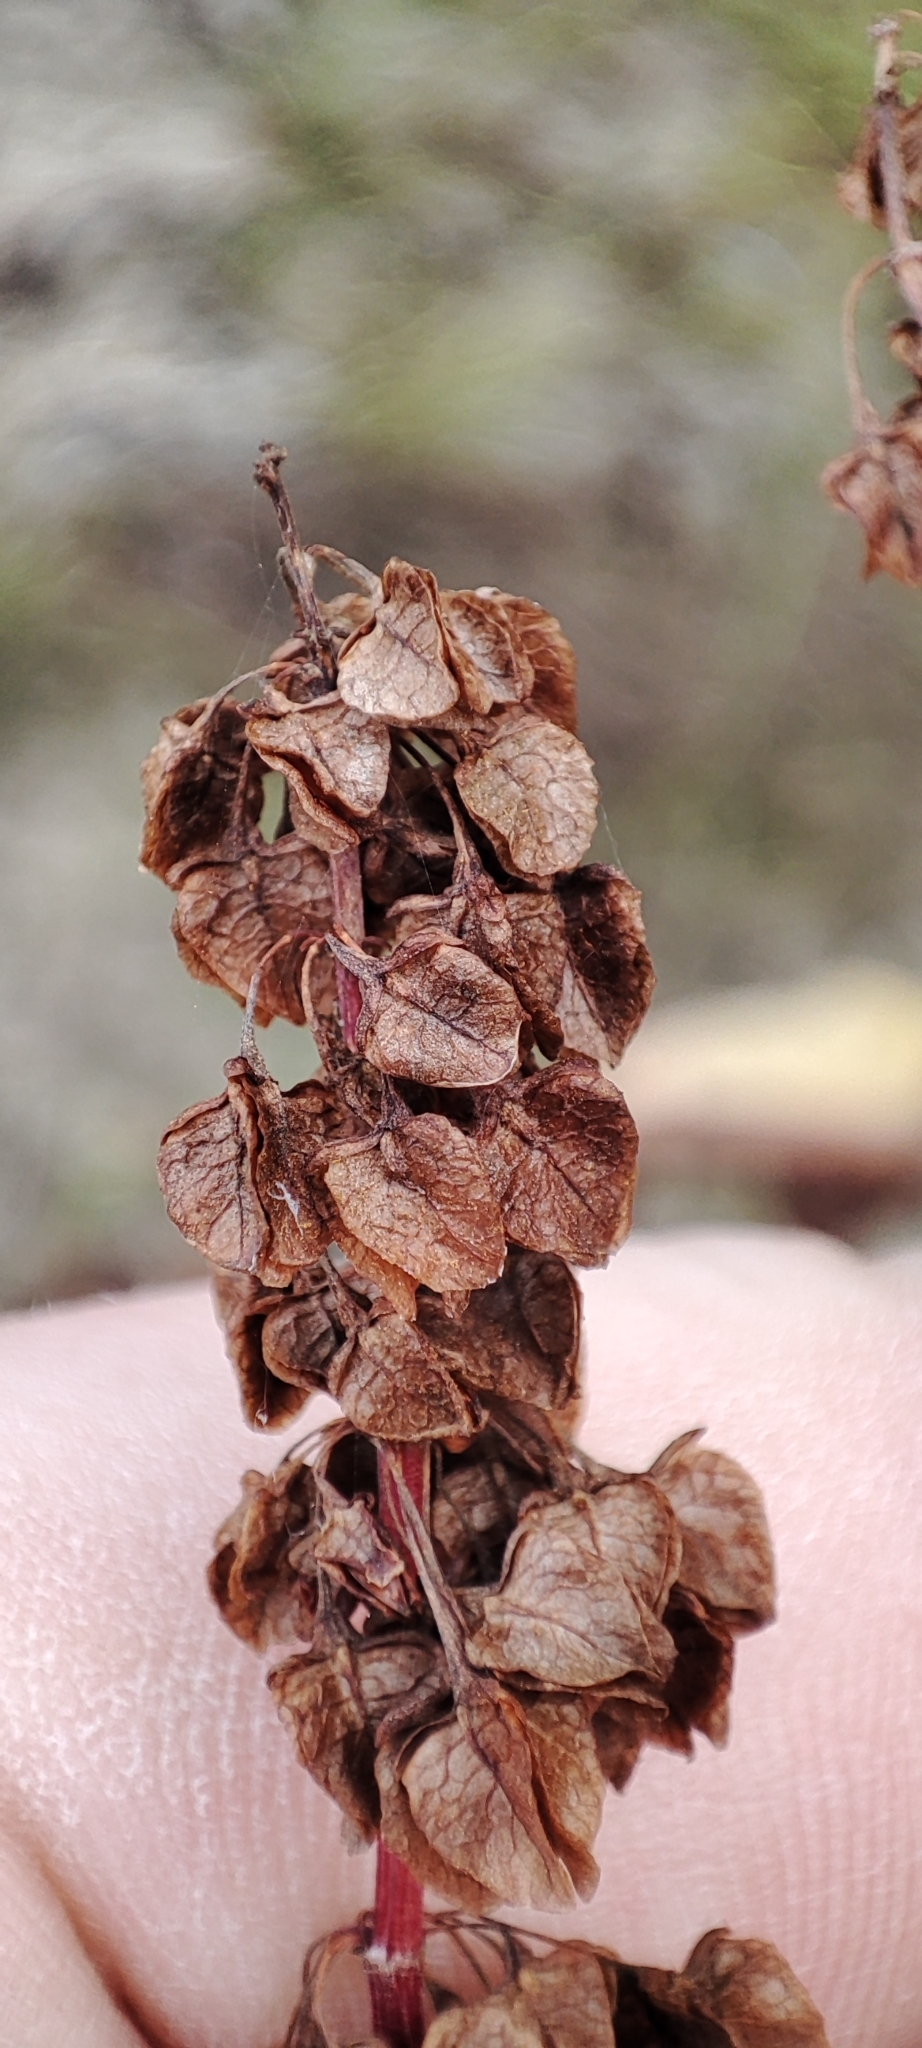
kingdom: Plantae
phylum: Tracheophyta
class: Magnoliopsida
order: Caryophyllales
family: Polygonaceae
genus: Rumex
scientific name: Rumex aquaticus
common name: Scottish dock
